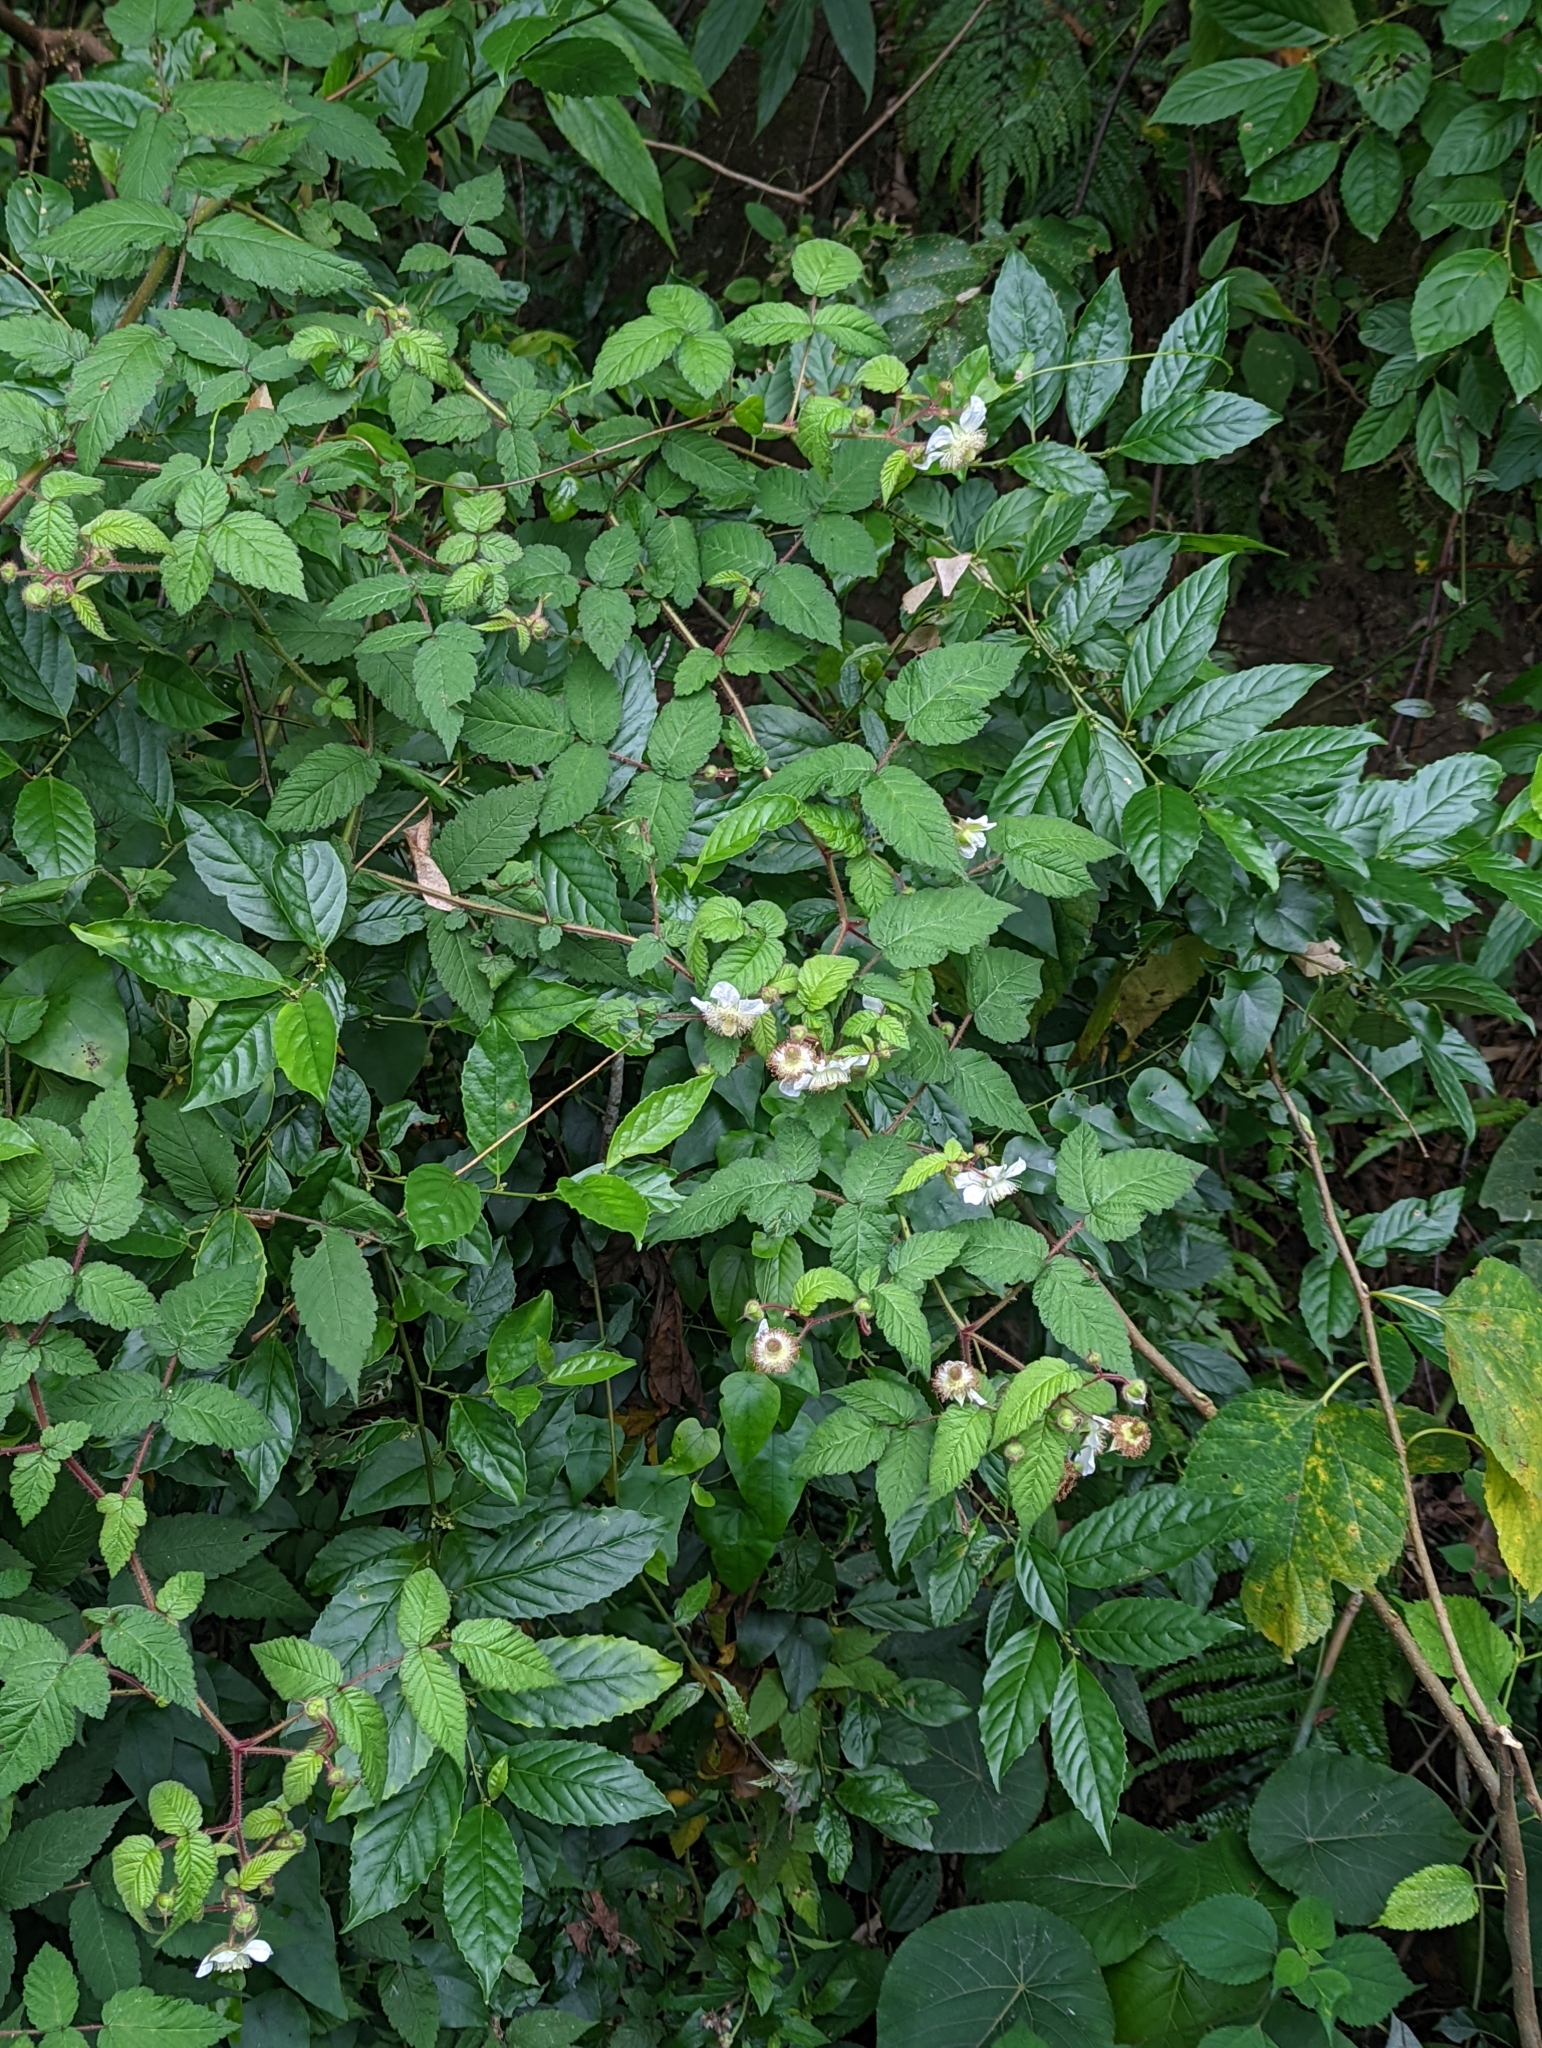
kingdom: Plantae
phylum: Tracheophyta
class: Magnoliopsida
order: Rosales
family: Rosaceae
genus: Rubus
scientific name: Rubus croceacanthus
